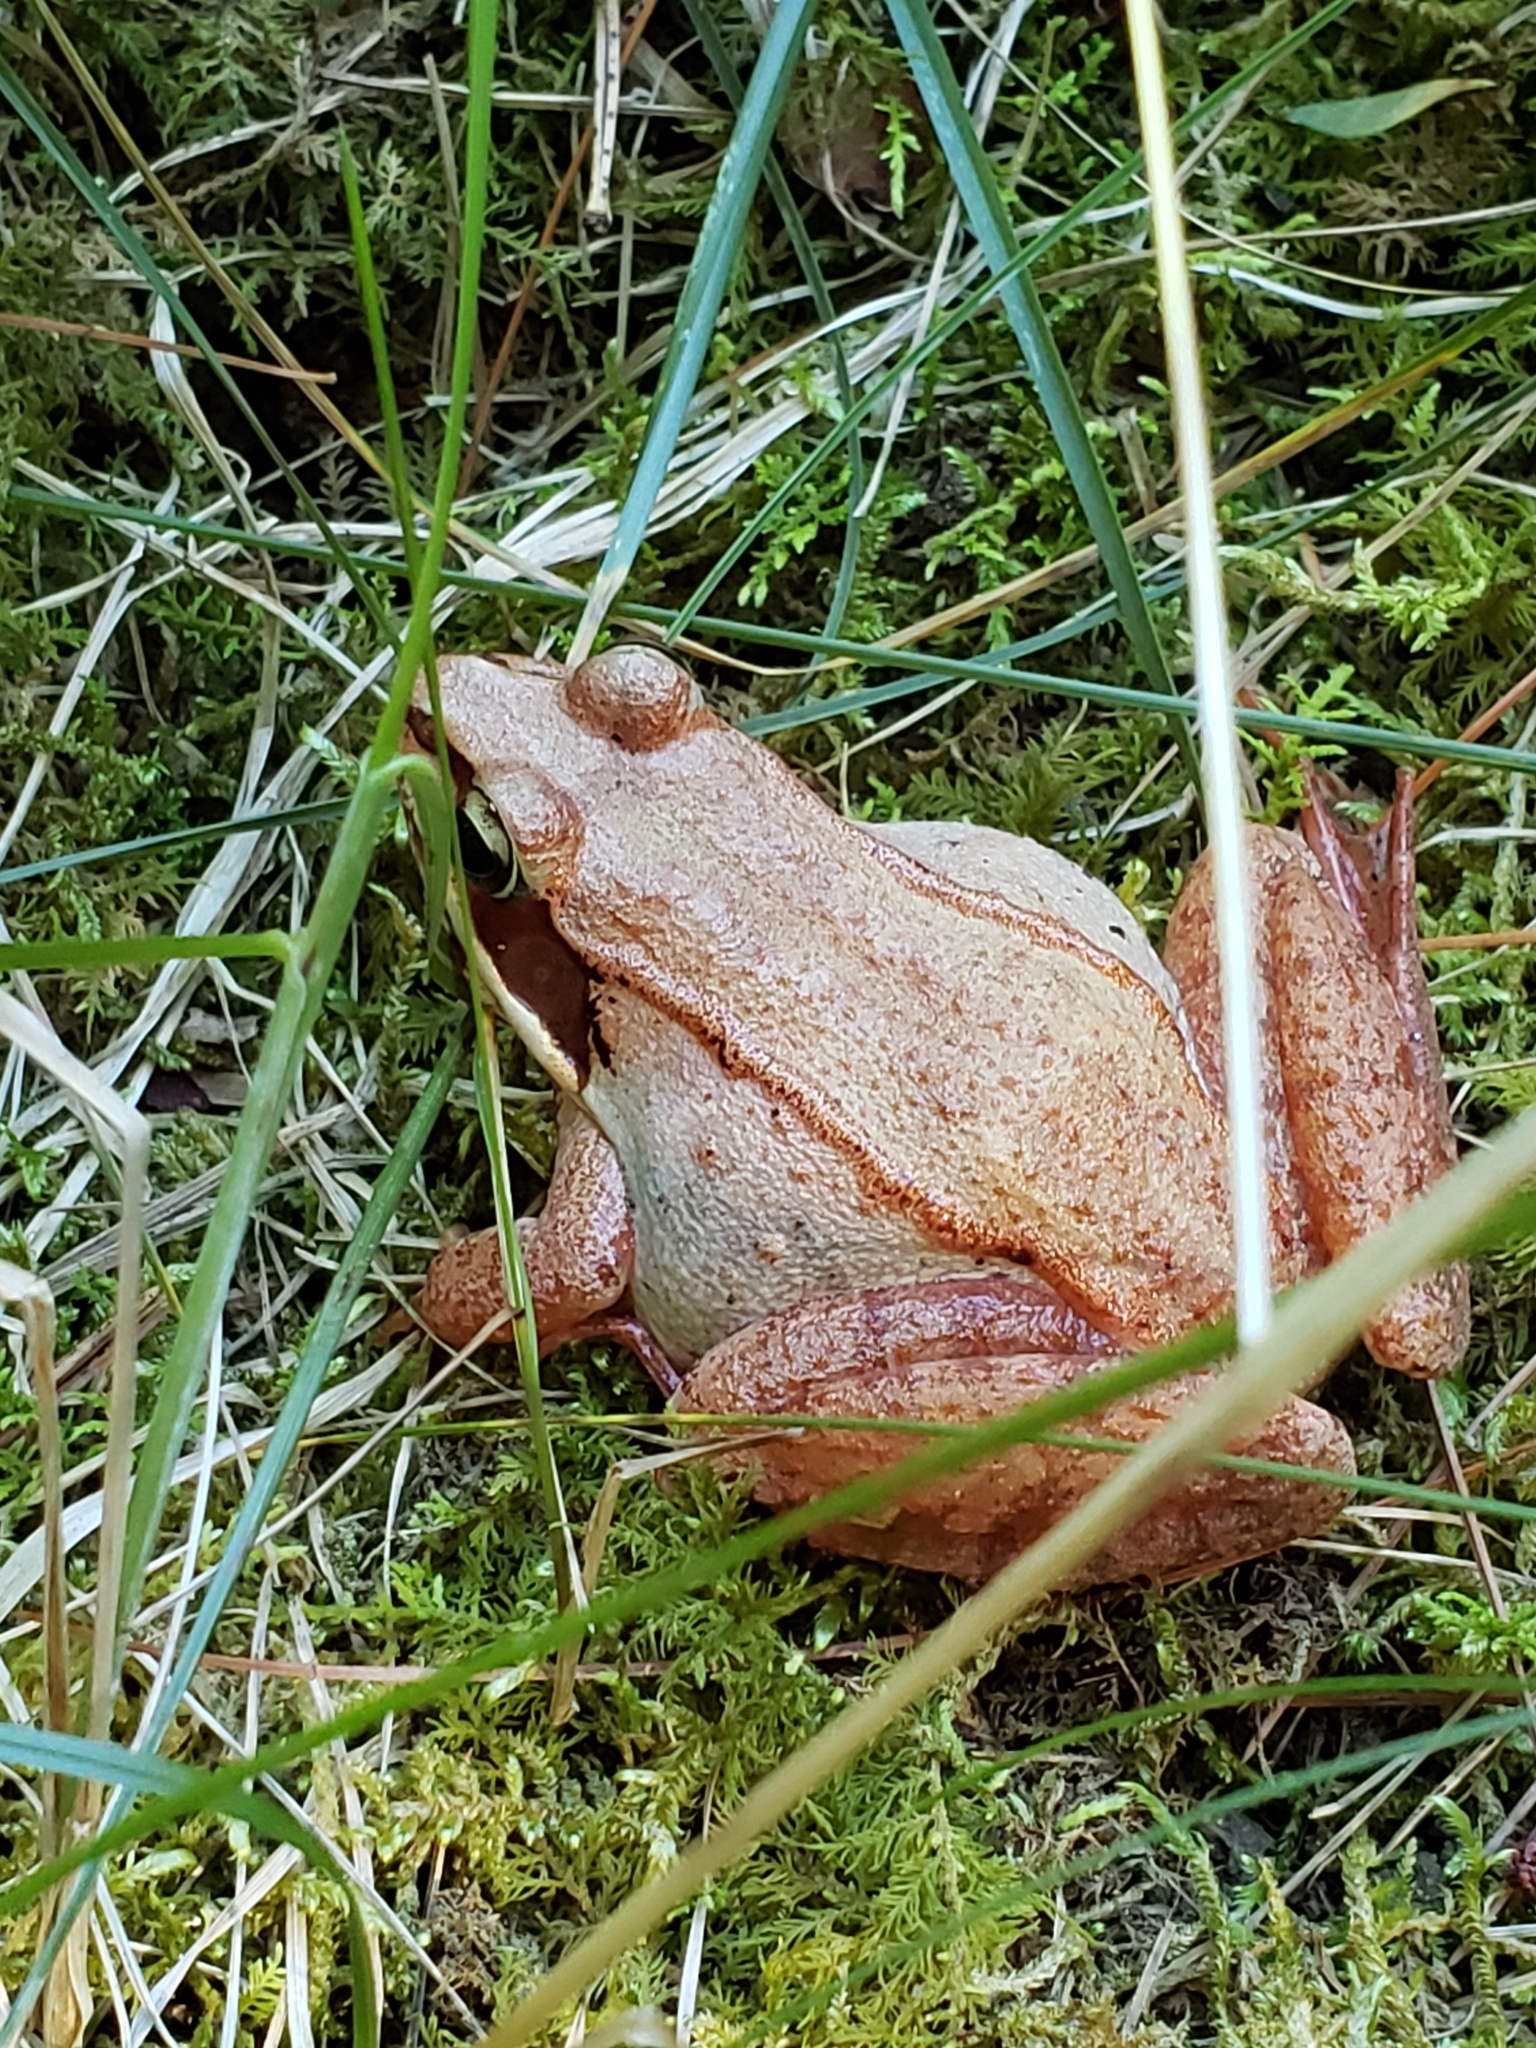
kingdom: Animalia
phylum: Chordata
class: Amphibia
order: Anura
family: Ranidae
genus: Lithobates
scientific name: Lithobates sylvaticus
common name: Wood frog
